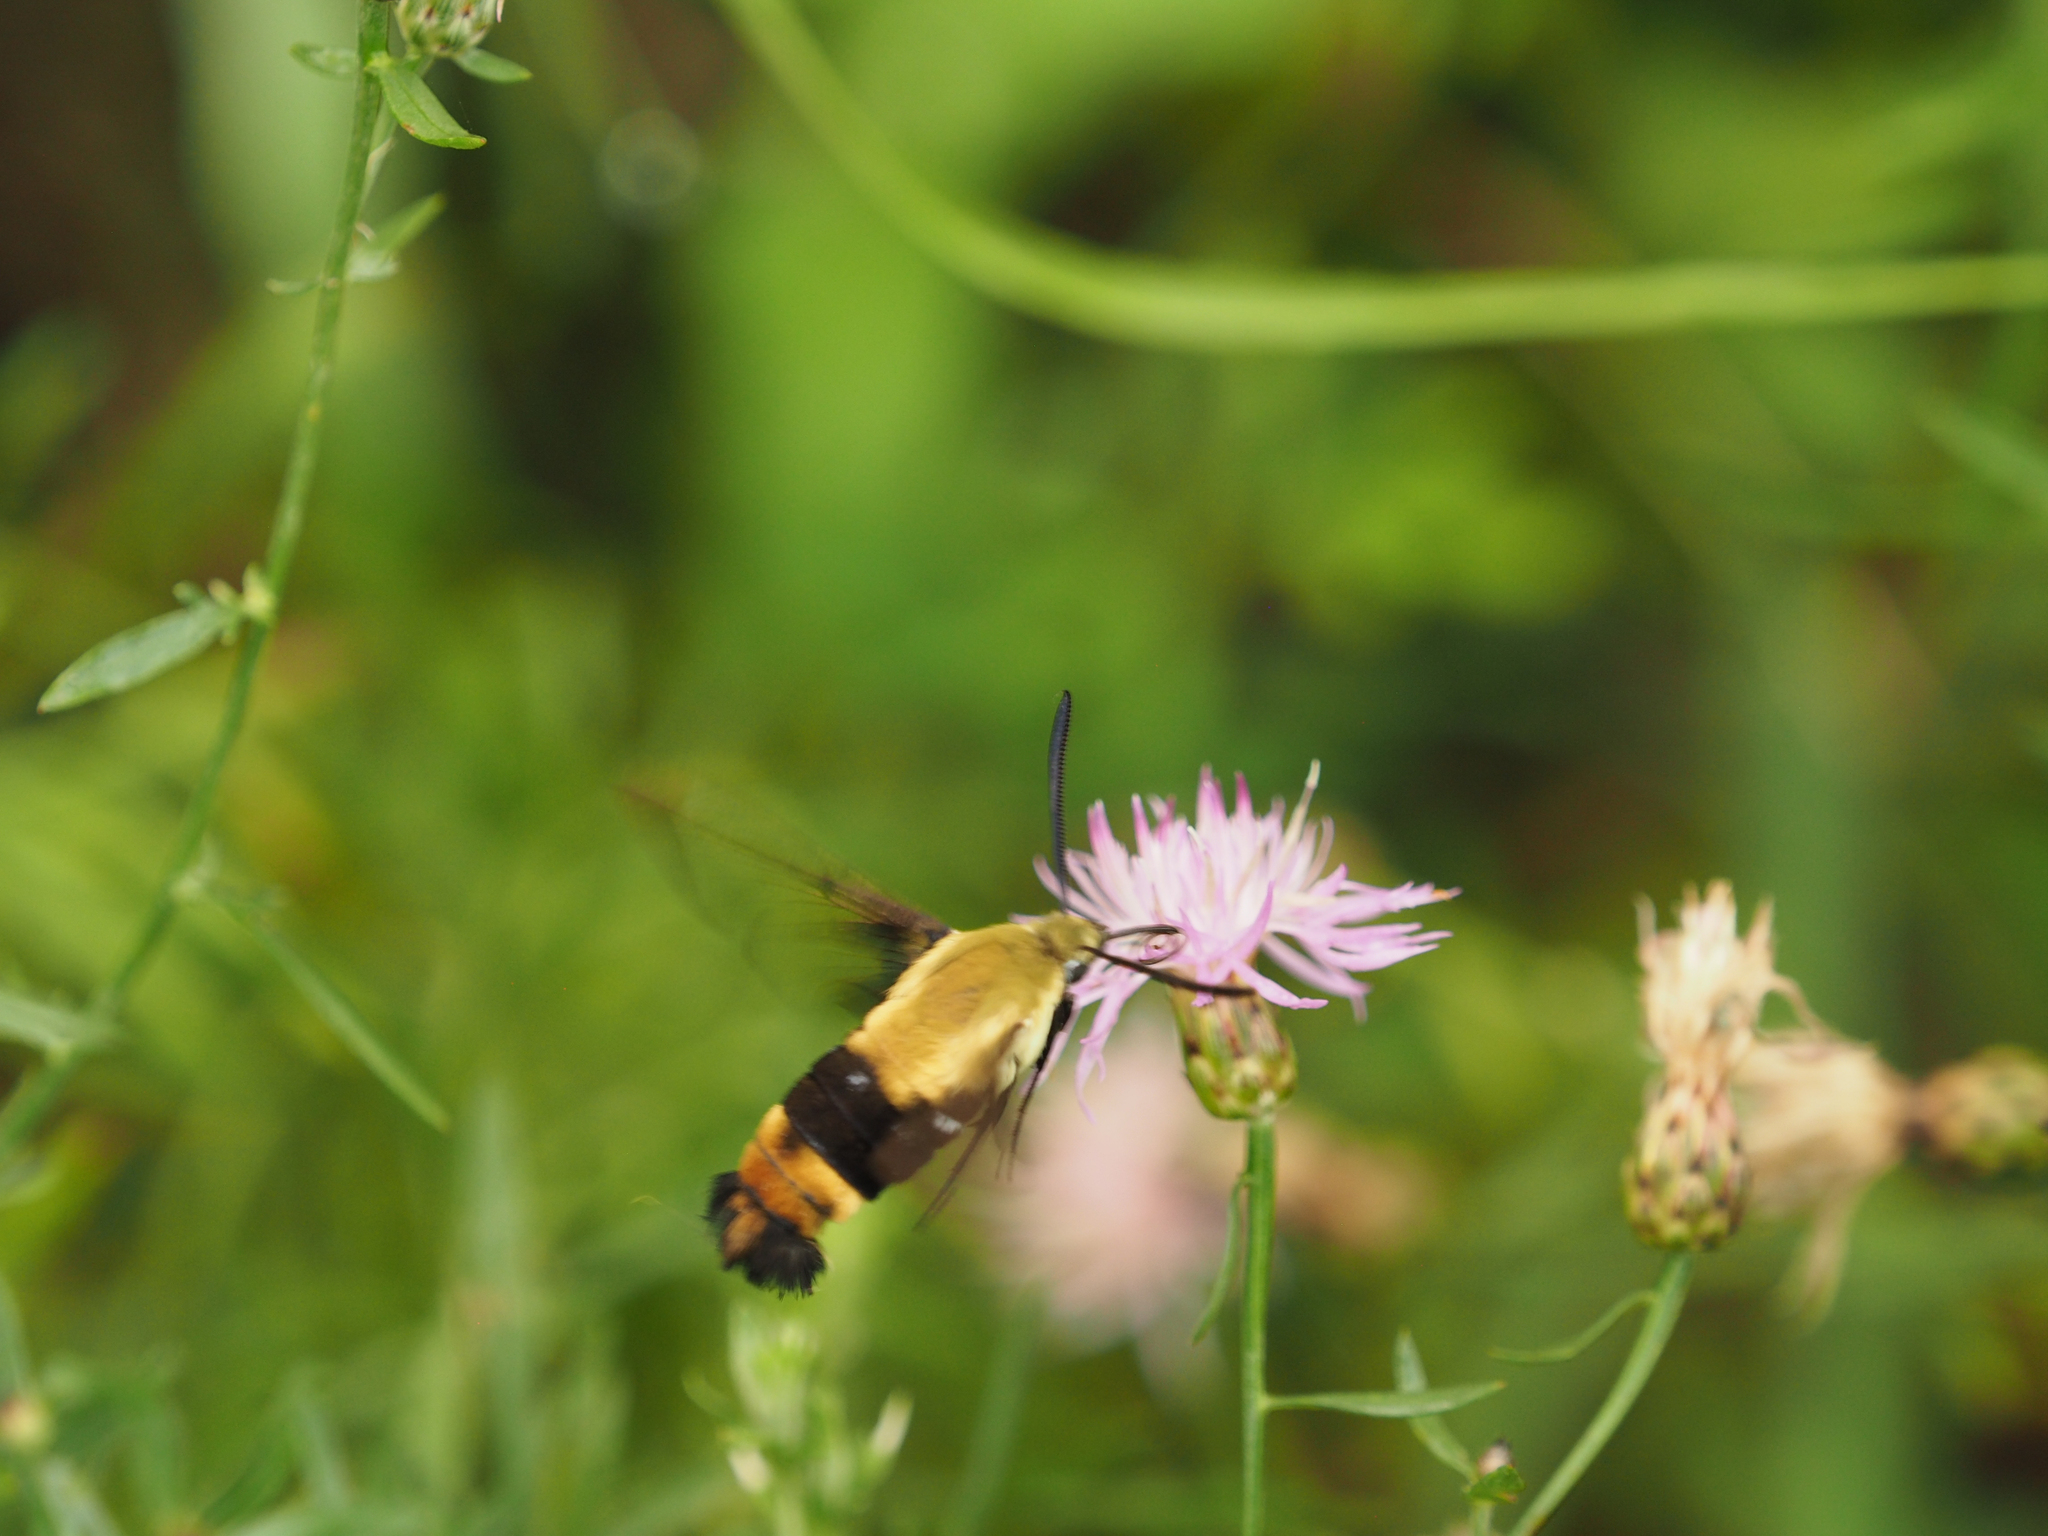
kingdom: Animalia
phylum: Arthropoda
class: Insecta
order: Lepidoptera
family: Sphingidae
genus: Hemaris
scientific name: Hemaris diffinis
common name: Bumblebee moth
